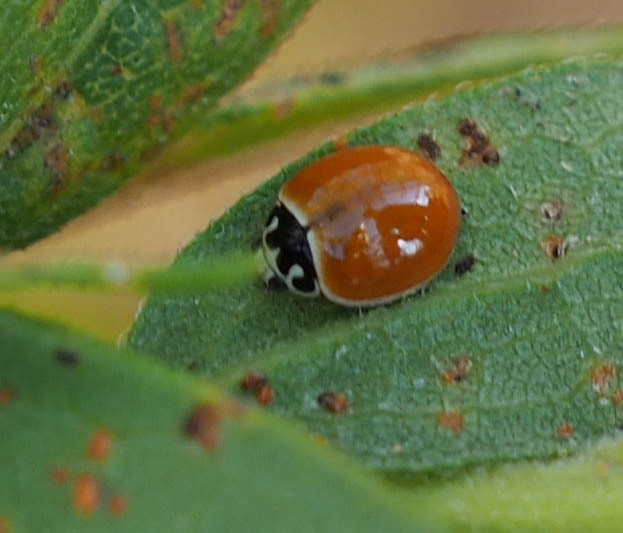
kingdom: Animalia
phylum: Arthropoda
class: Insecta
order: Coleoptera
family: Coccinellidae
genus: Cycloneda
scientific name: Cycloneda munda
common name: Polished lady beetle
